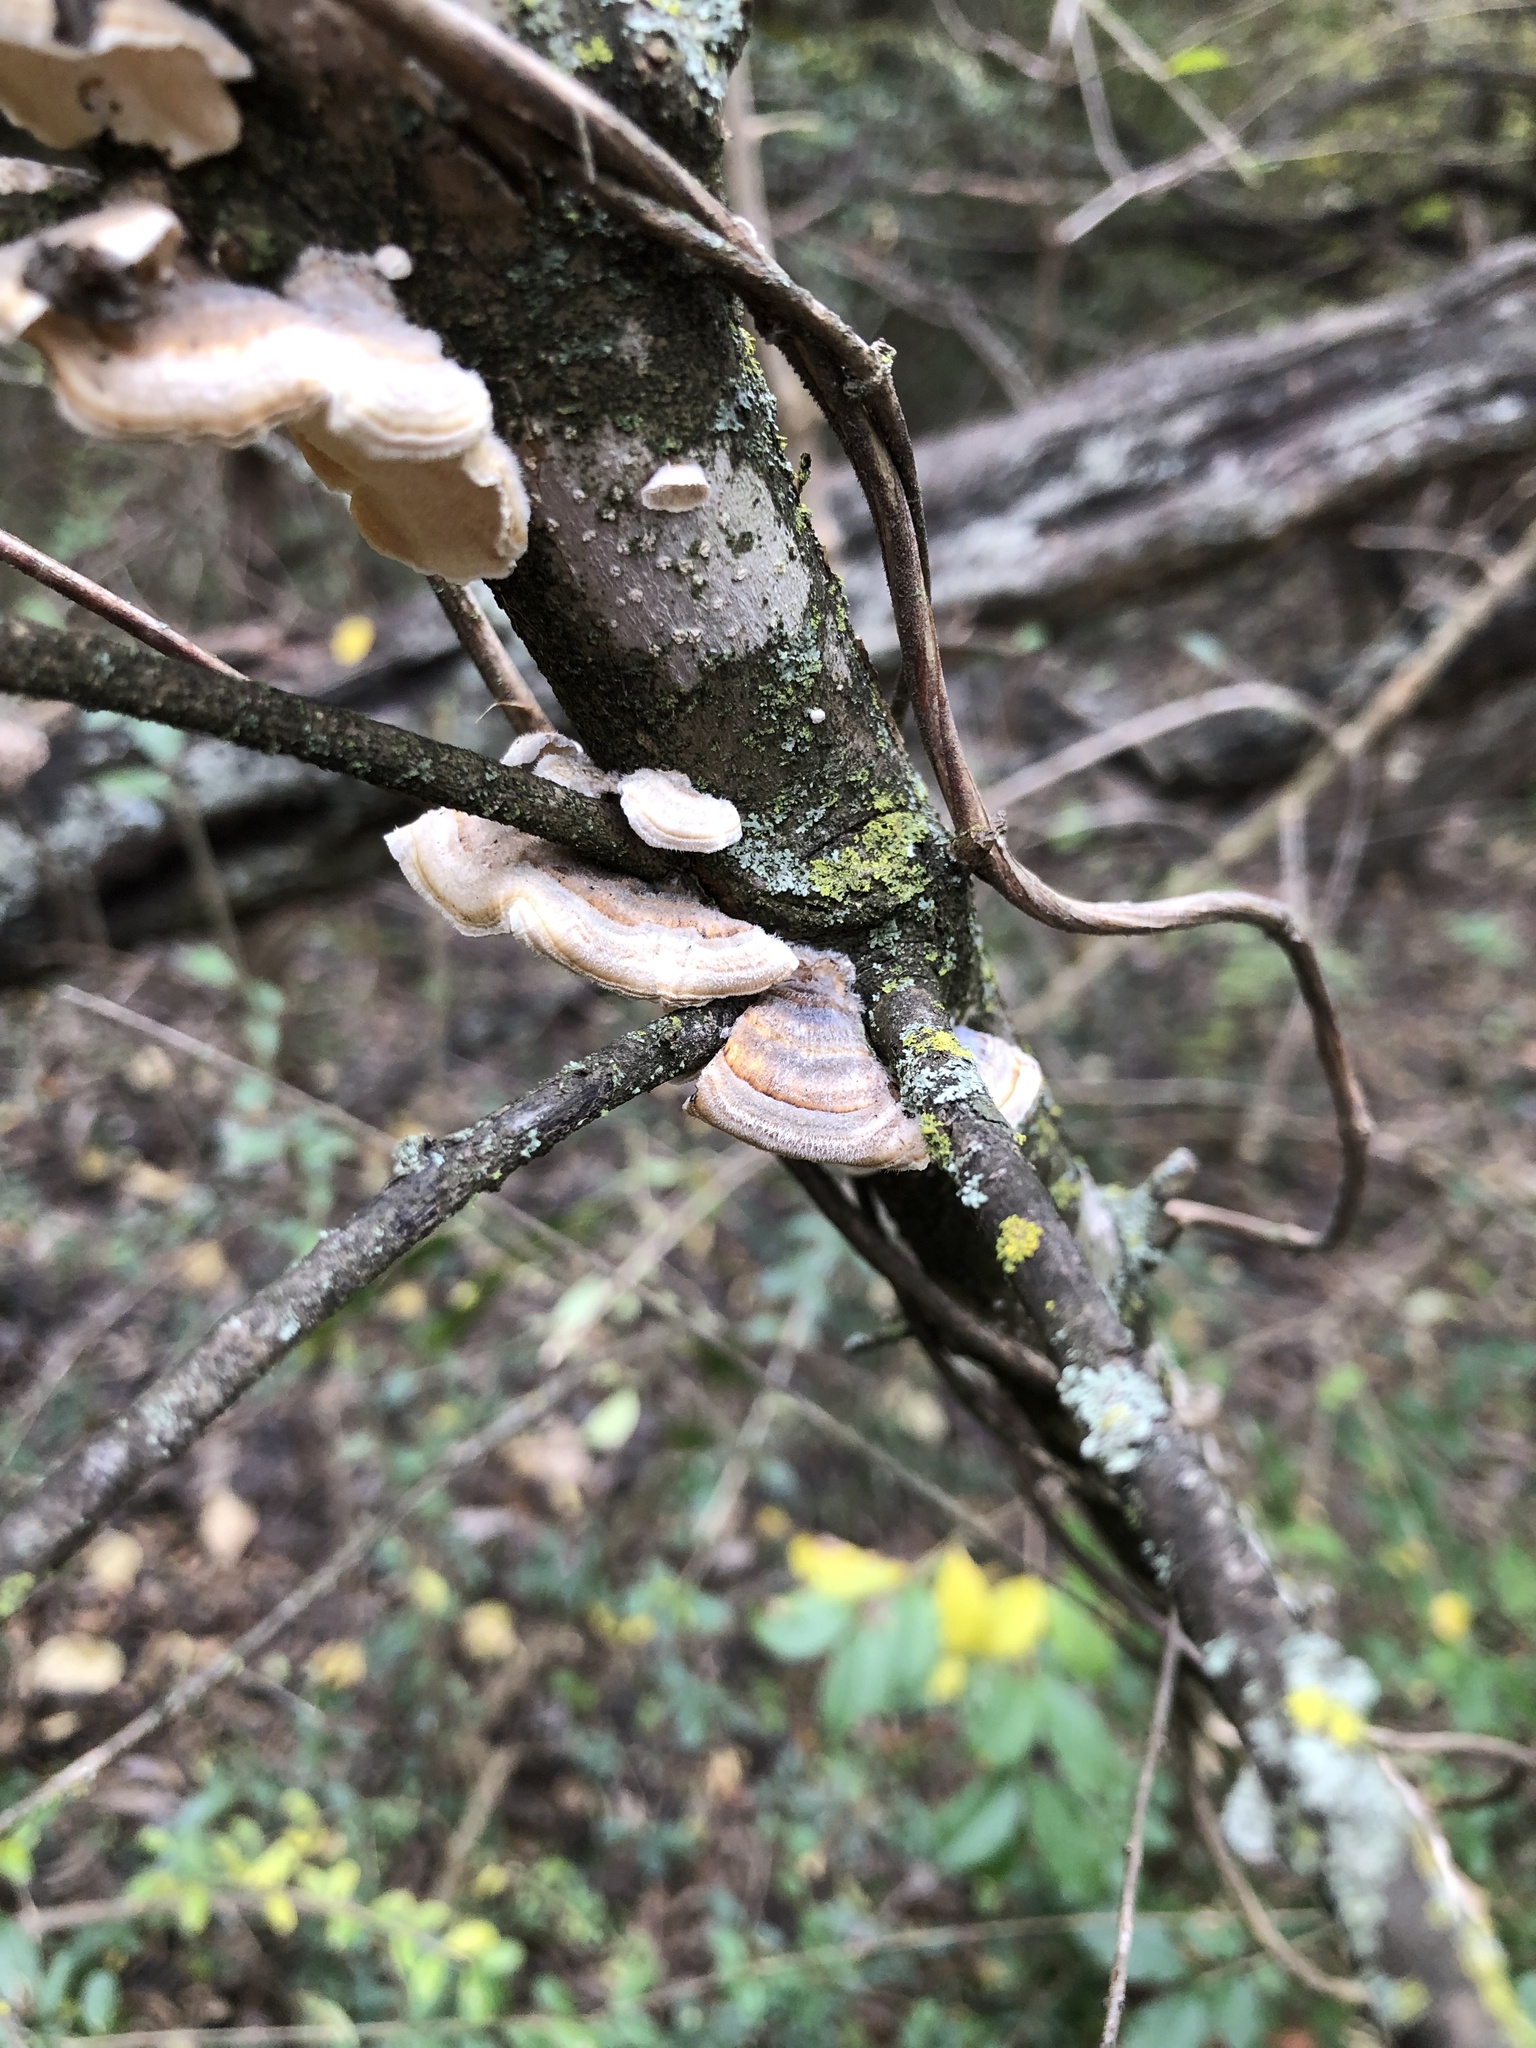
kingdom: Fungi
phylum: Basidiomycota
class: Agaricomycetes
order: Polyporales
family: Polyporaceae
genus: Trametes
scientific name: Trametes versicolor
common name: Turkeytail
